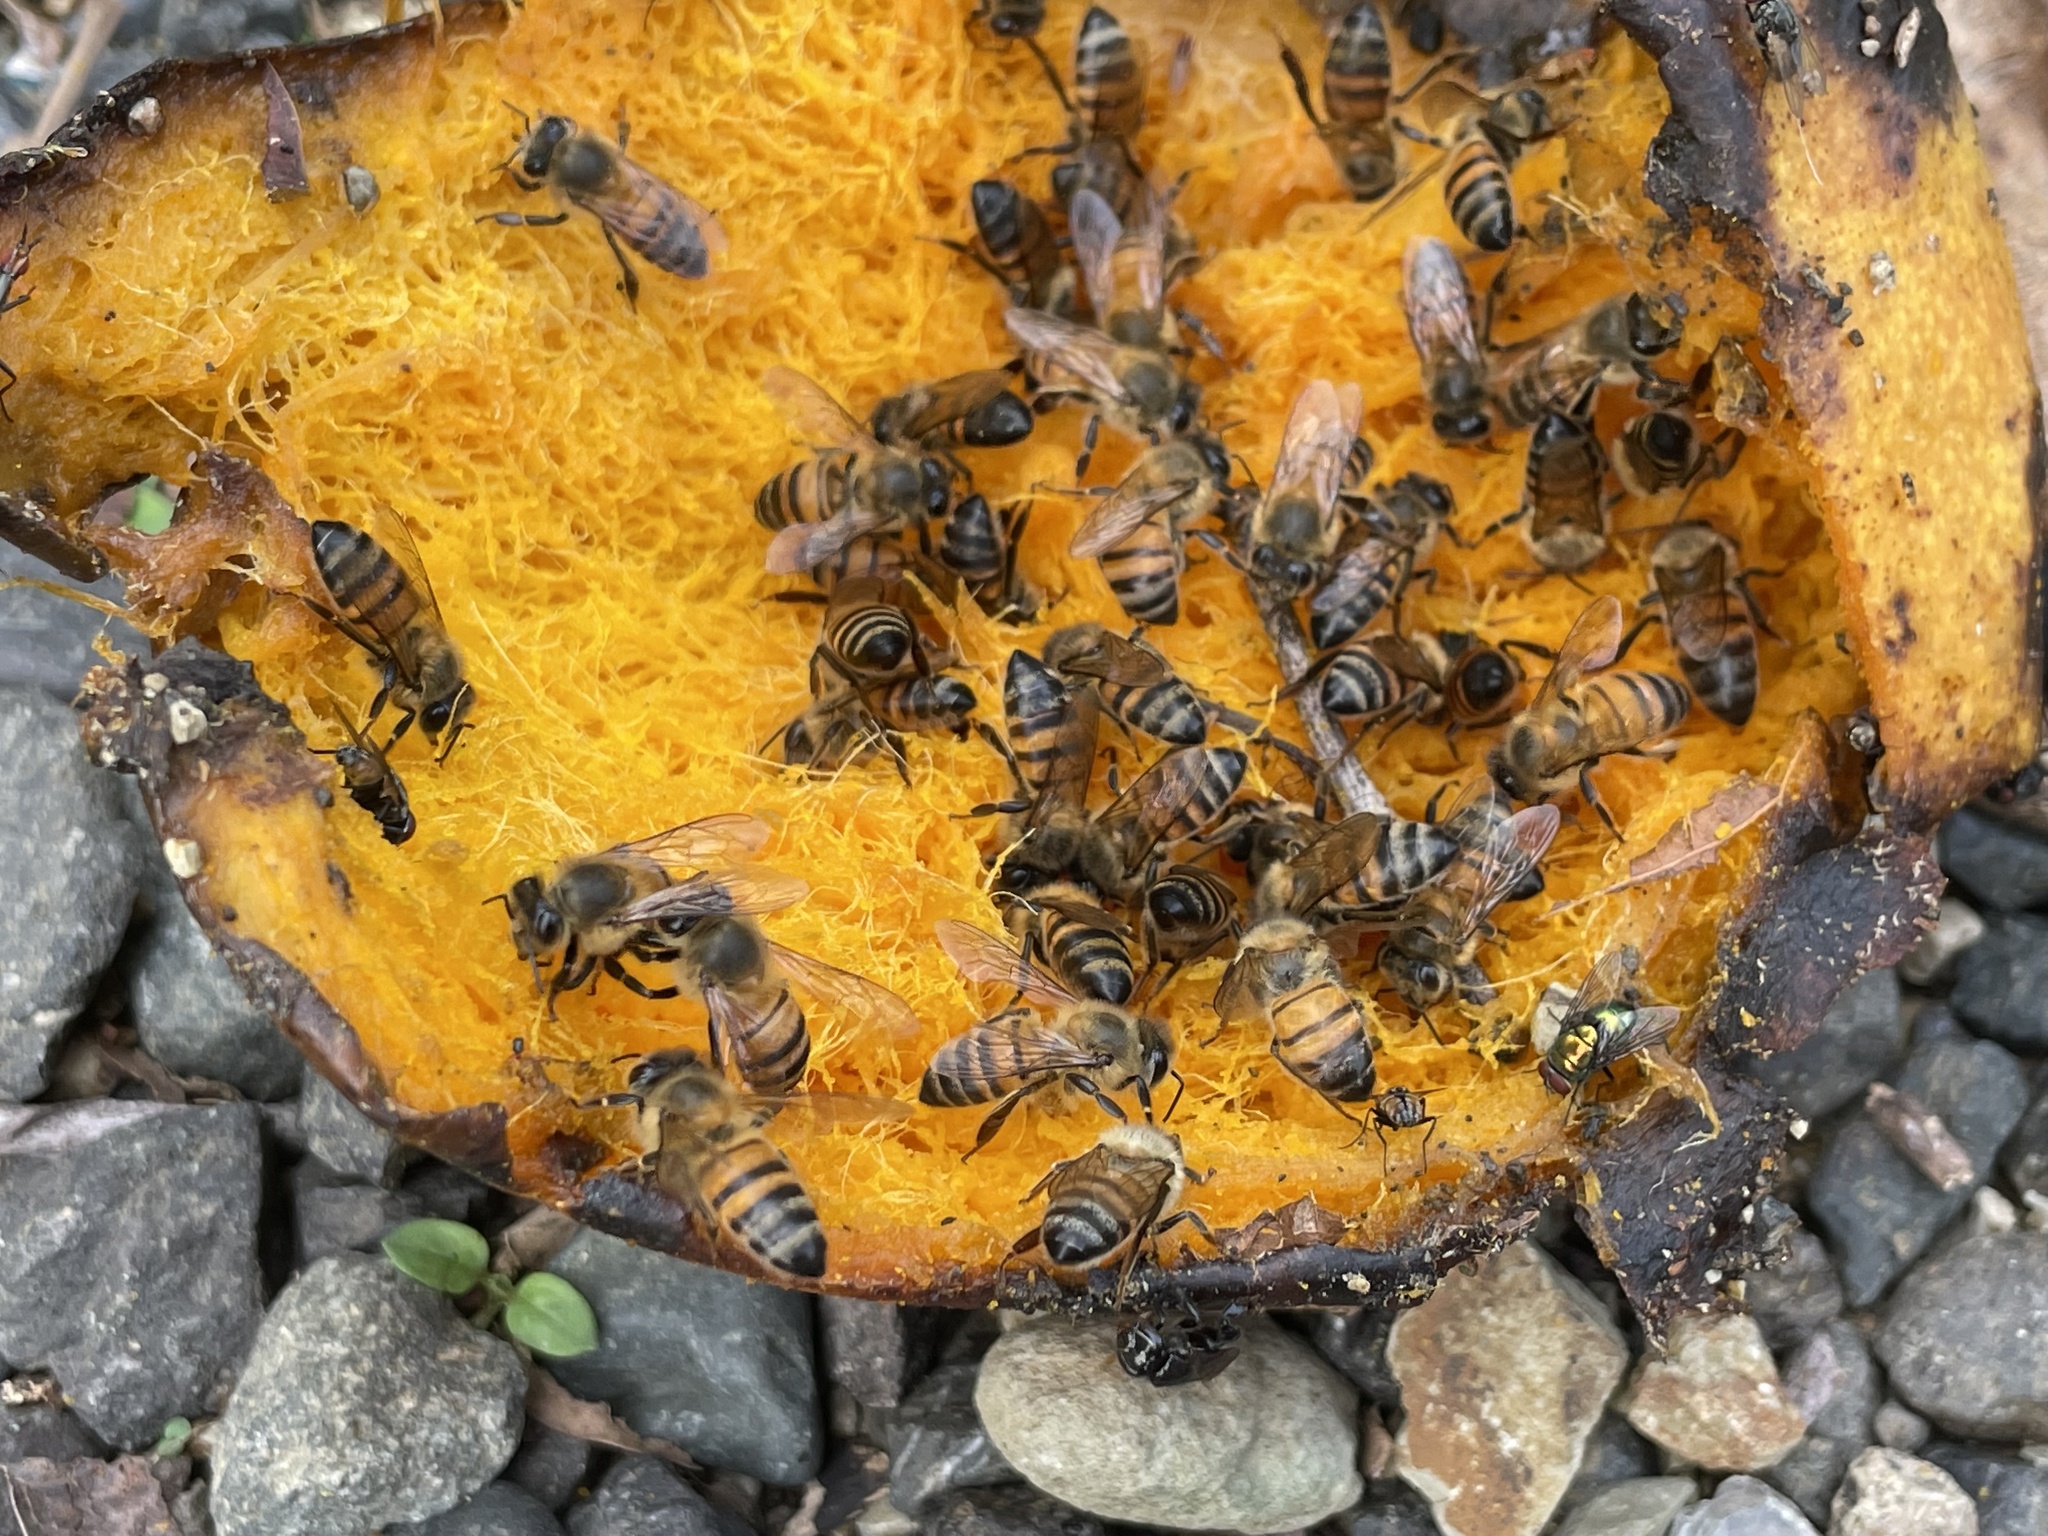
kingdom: Animalia
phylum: Arthropoda
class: Insecta
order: Hymenoptera
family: Apidae
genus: Apis
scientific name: Apis mellifera
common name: Honey bee
